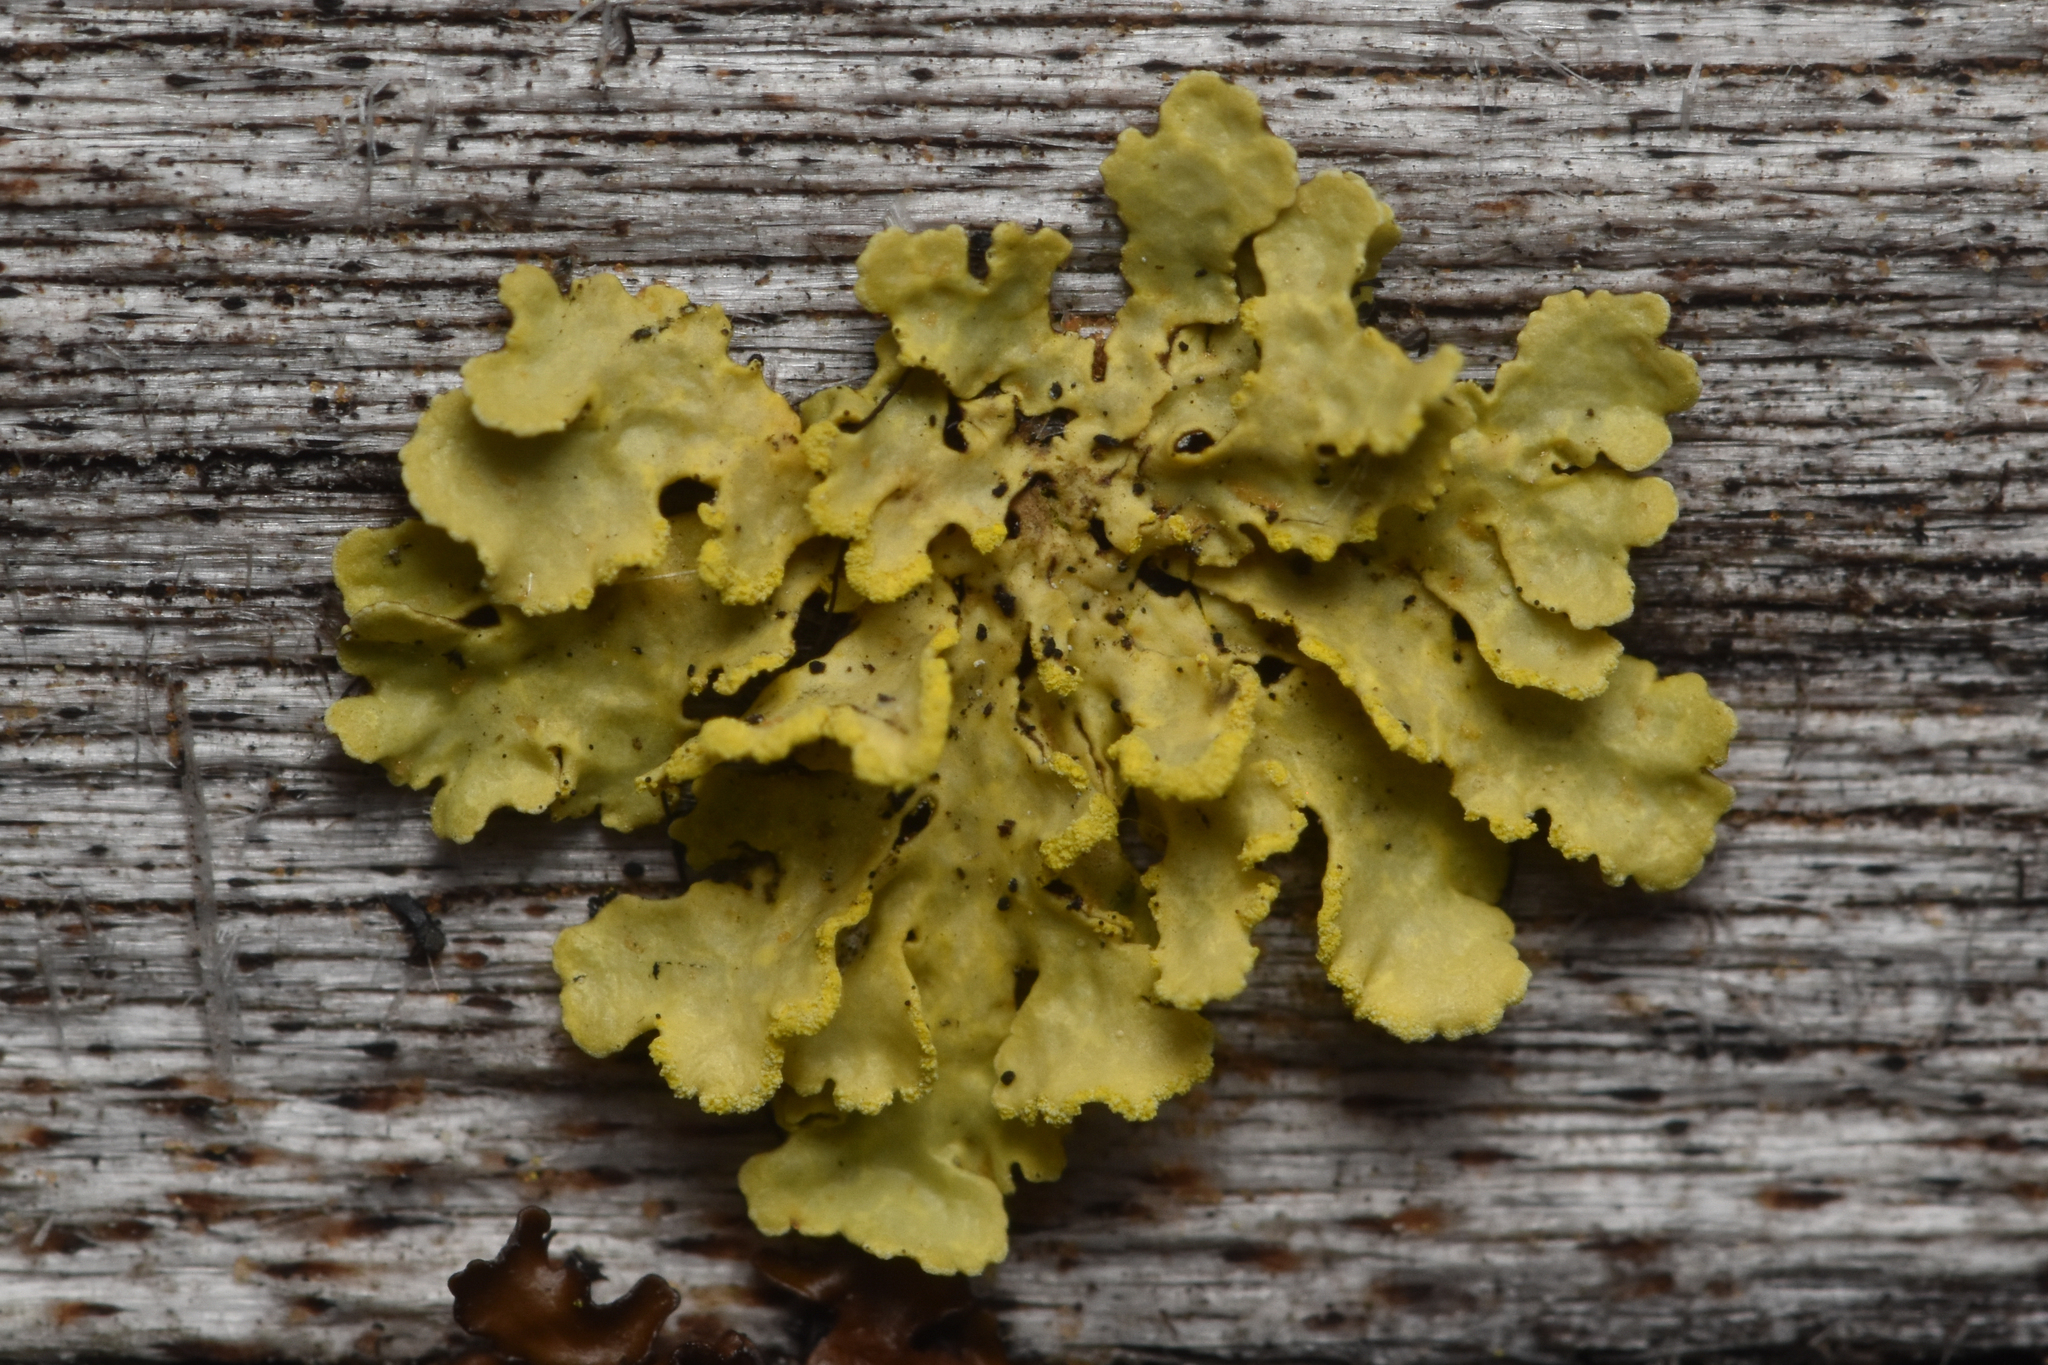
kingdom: Fungi
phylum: Ascomycota
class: Lecanoromycetes
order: Lecanorales
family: Parmeliaceae
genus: Vulpicida
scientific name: Vulpicida pinastri
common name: Powdered sunshine lichen
